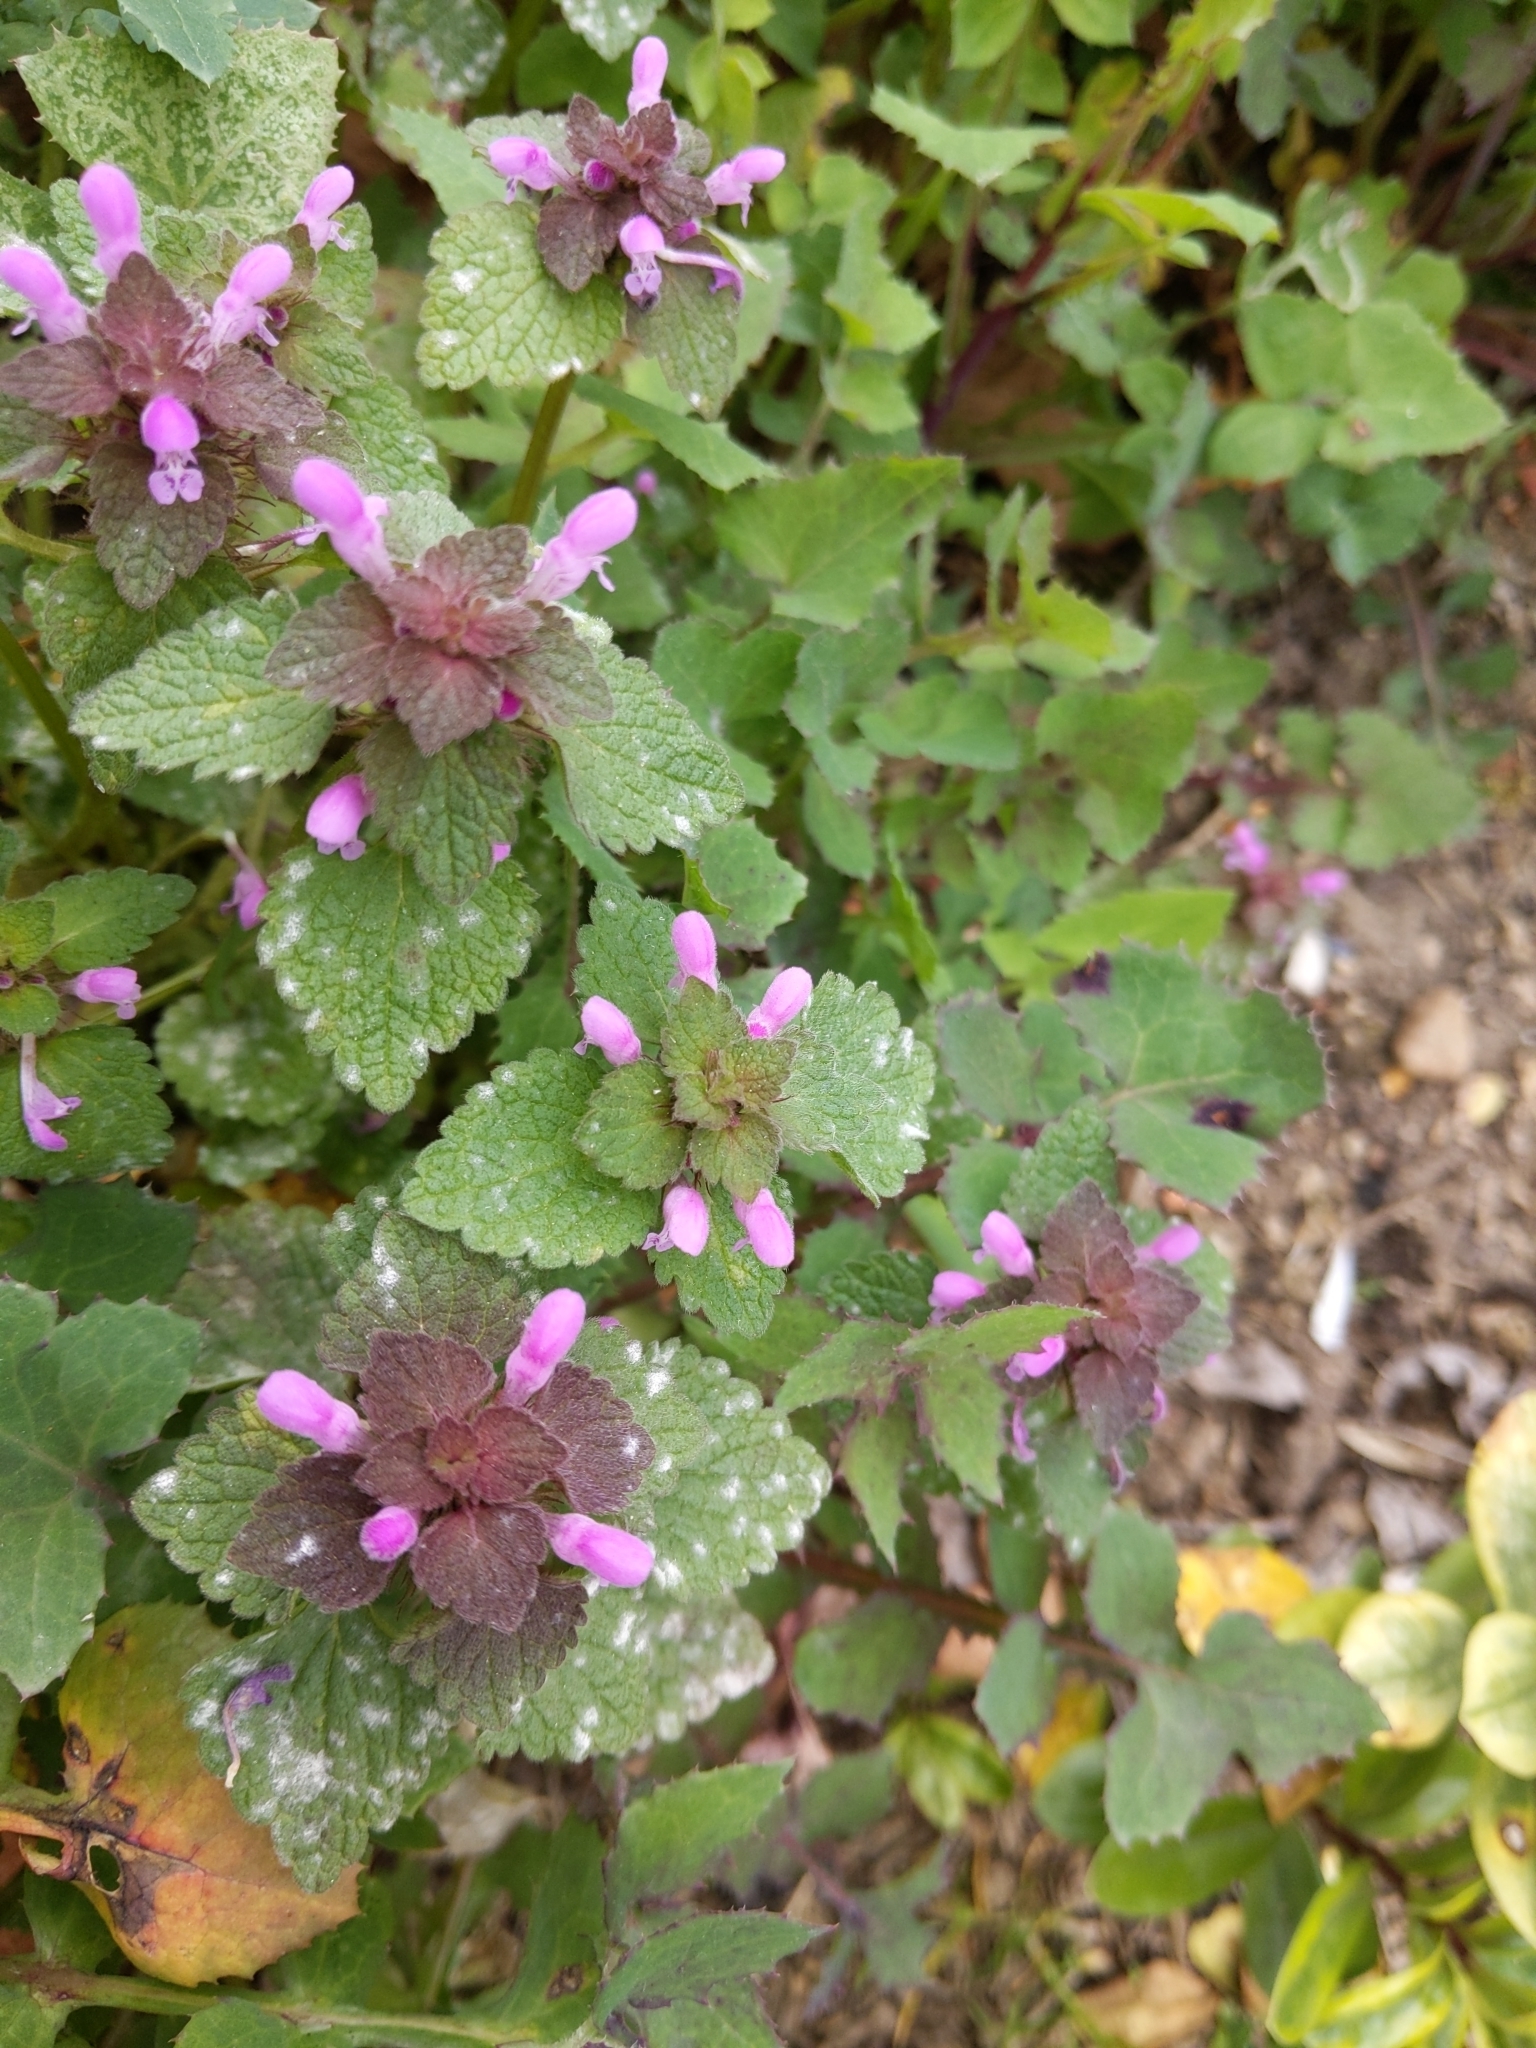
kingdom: Plantae
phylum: Tracheophyta
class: Magnoliopsida
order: Lamiales
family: Lamiaceae
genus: Lamium
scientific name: Lamium purpureum
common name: Red dead-nettle
